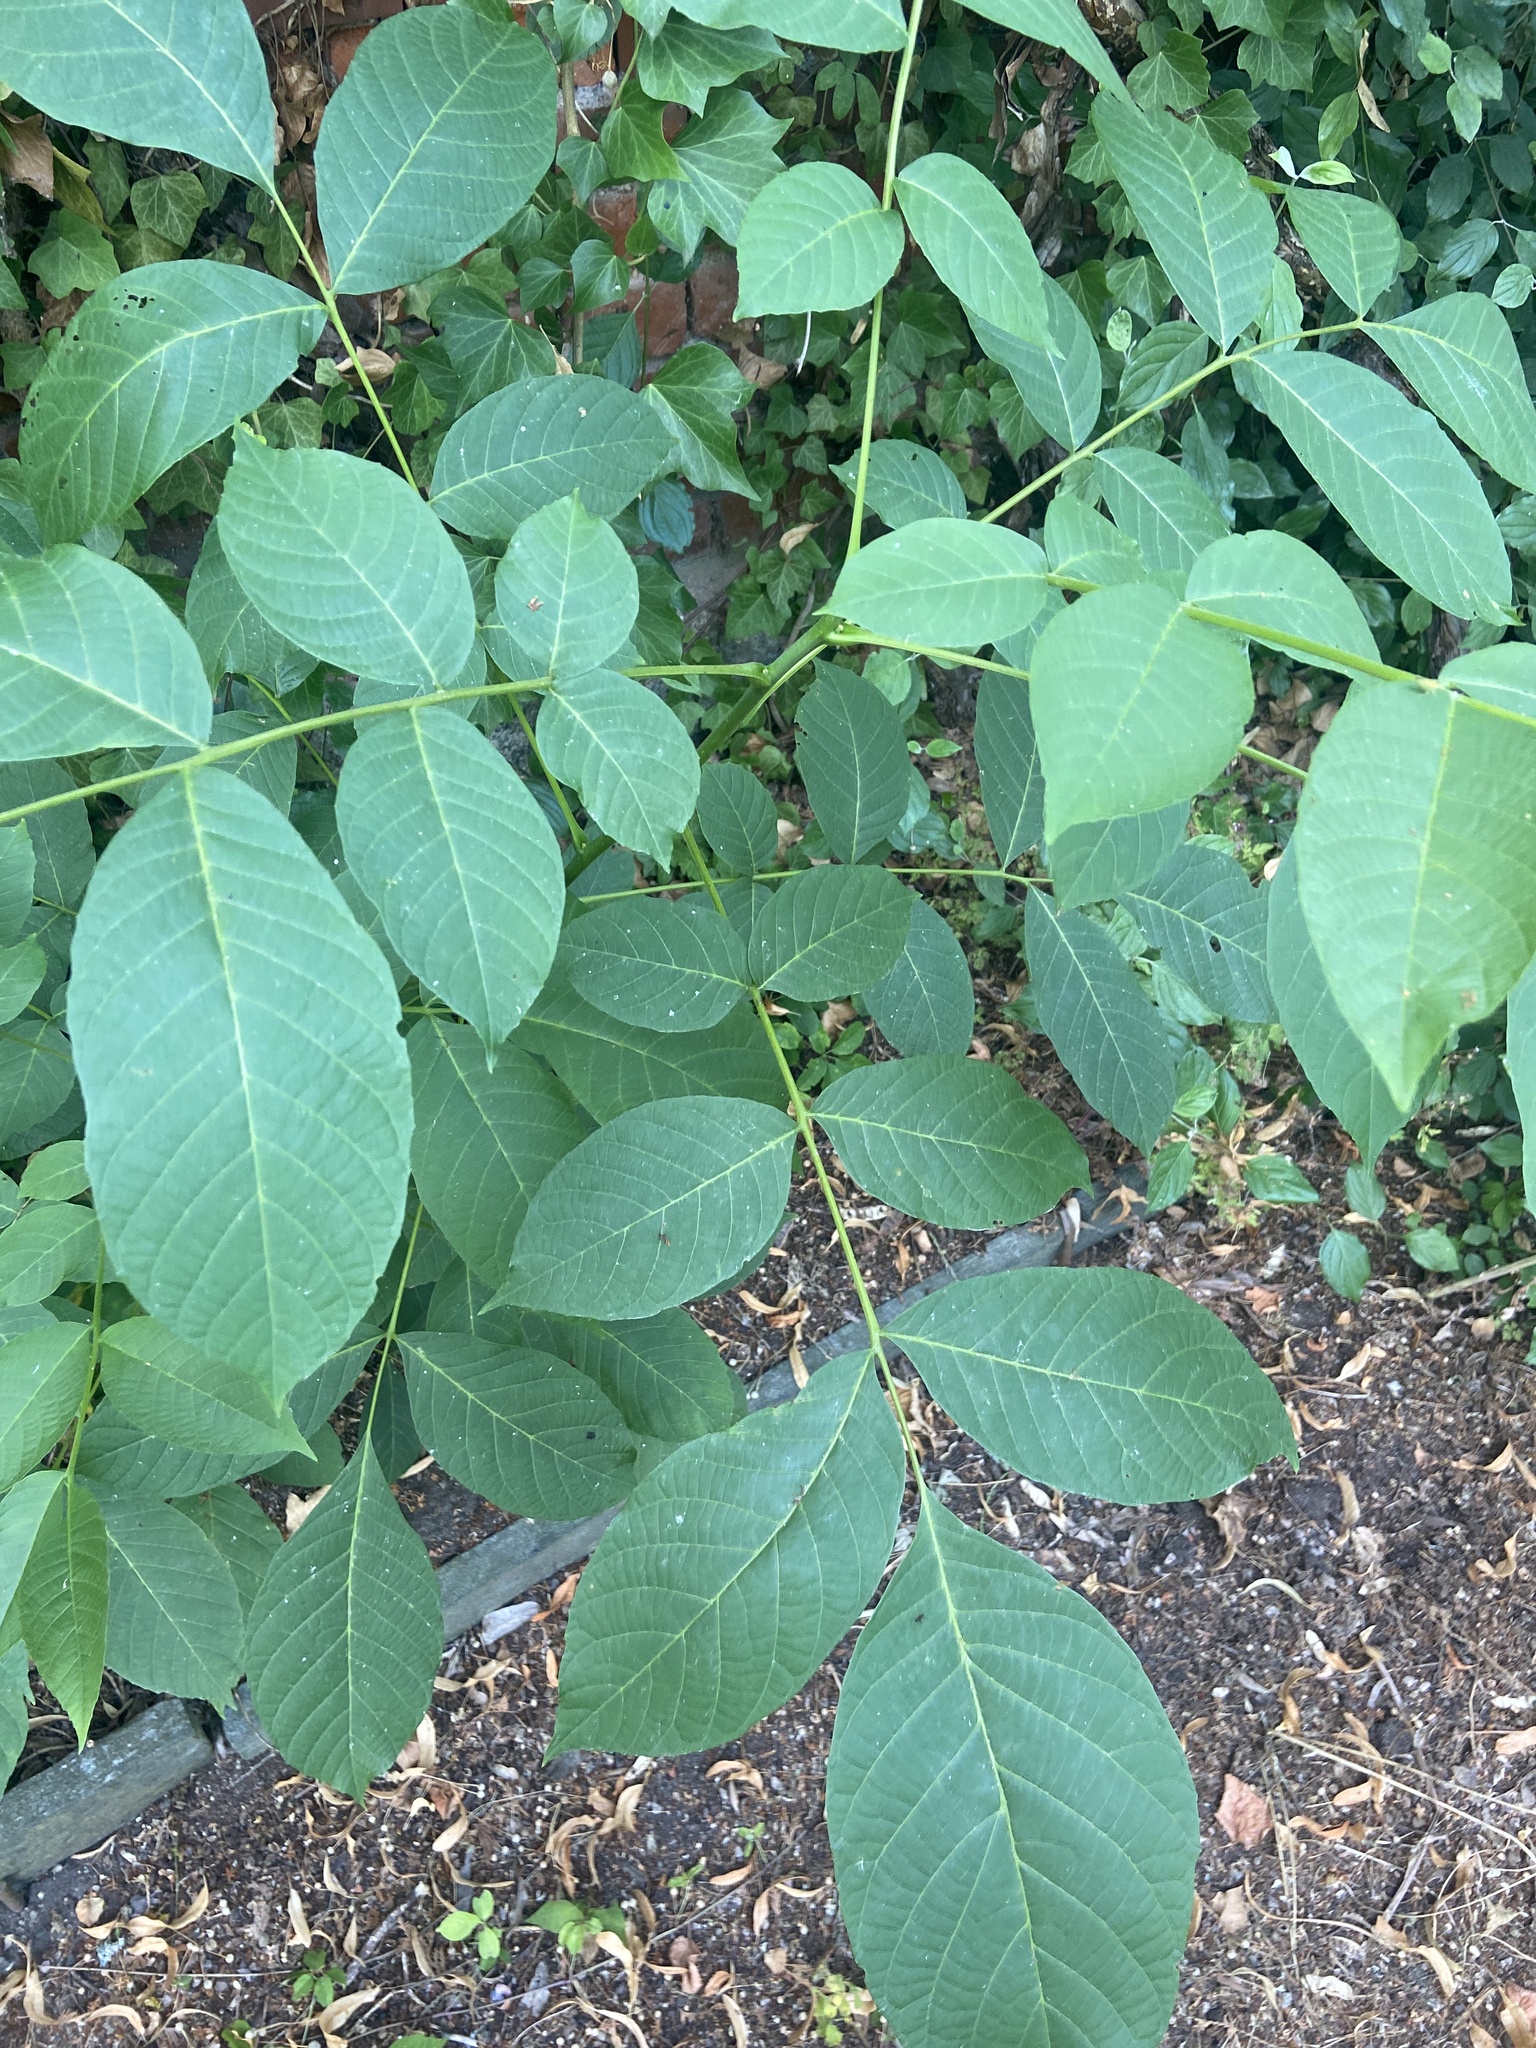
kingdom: Plantae
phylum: Tracheophyta
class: Magnoliopsida
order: Fagales
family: Juglandaceae
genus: Juglans
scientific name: Juglans regia
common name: Walnut
